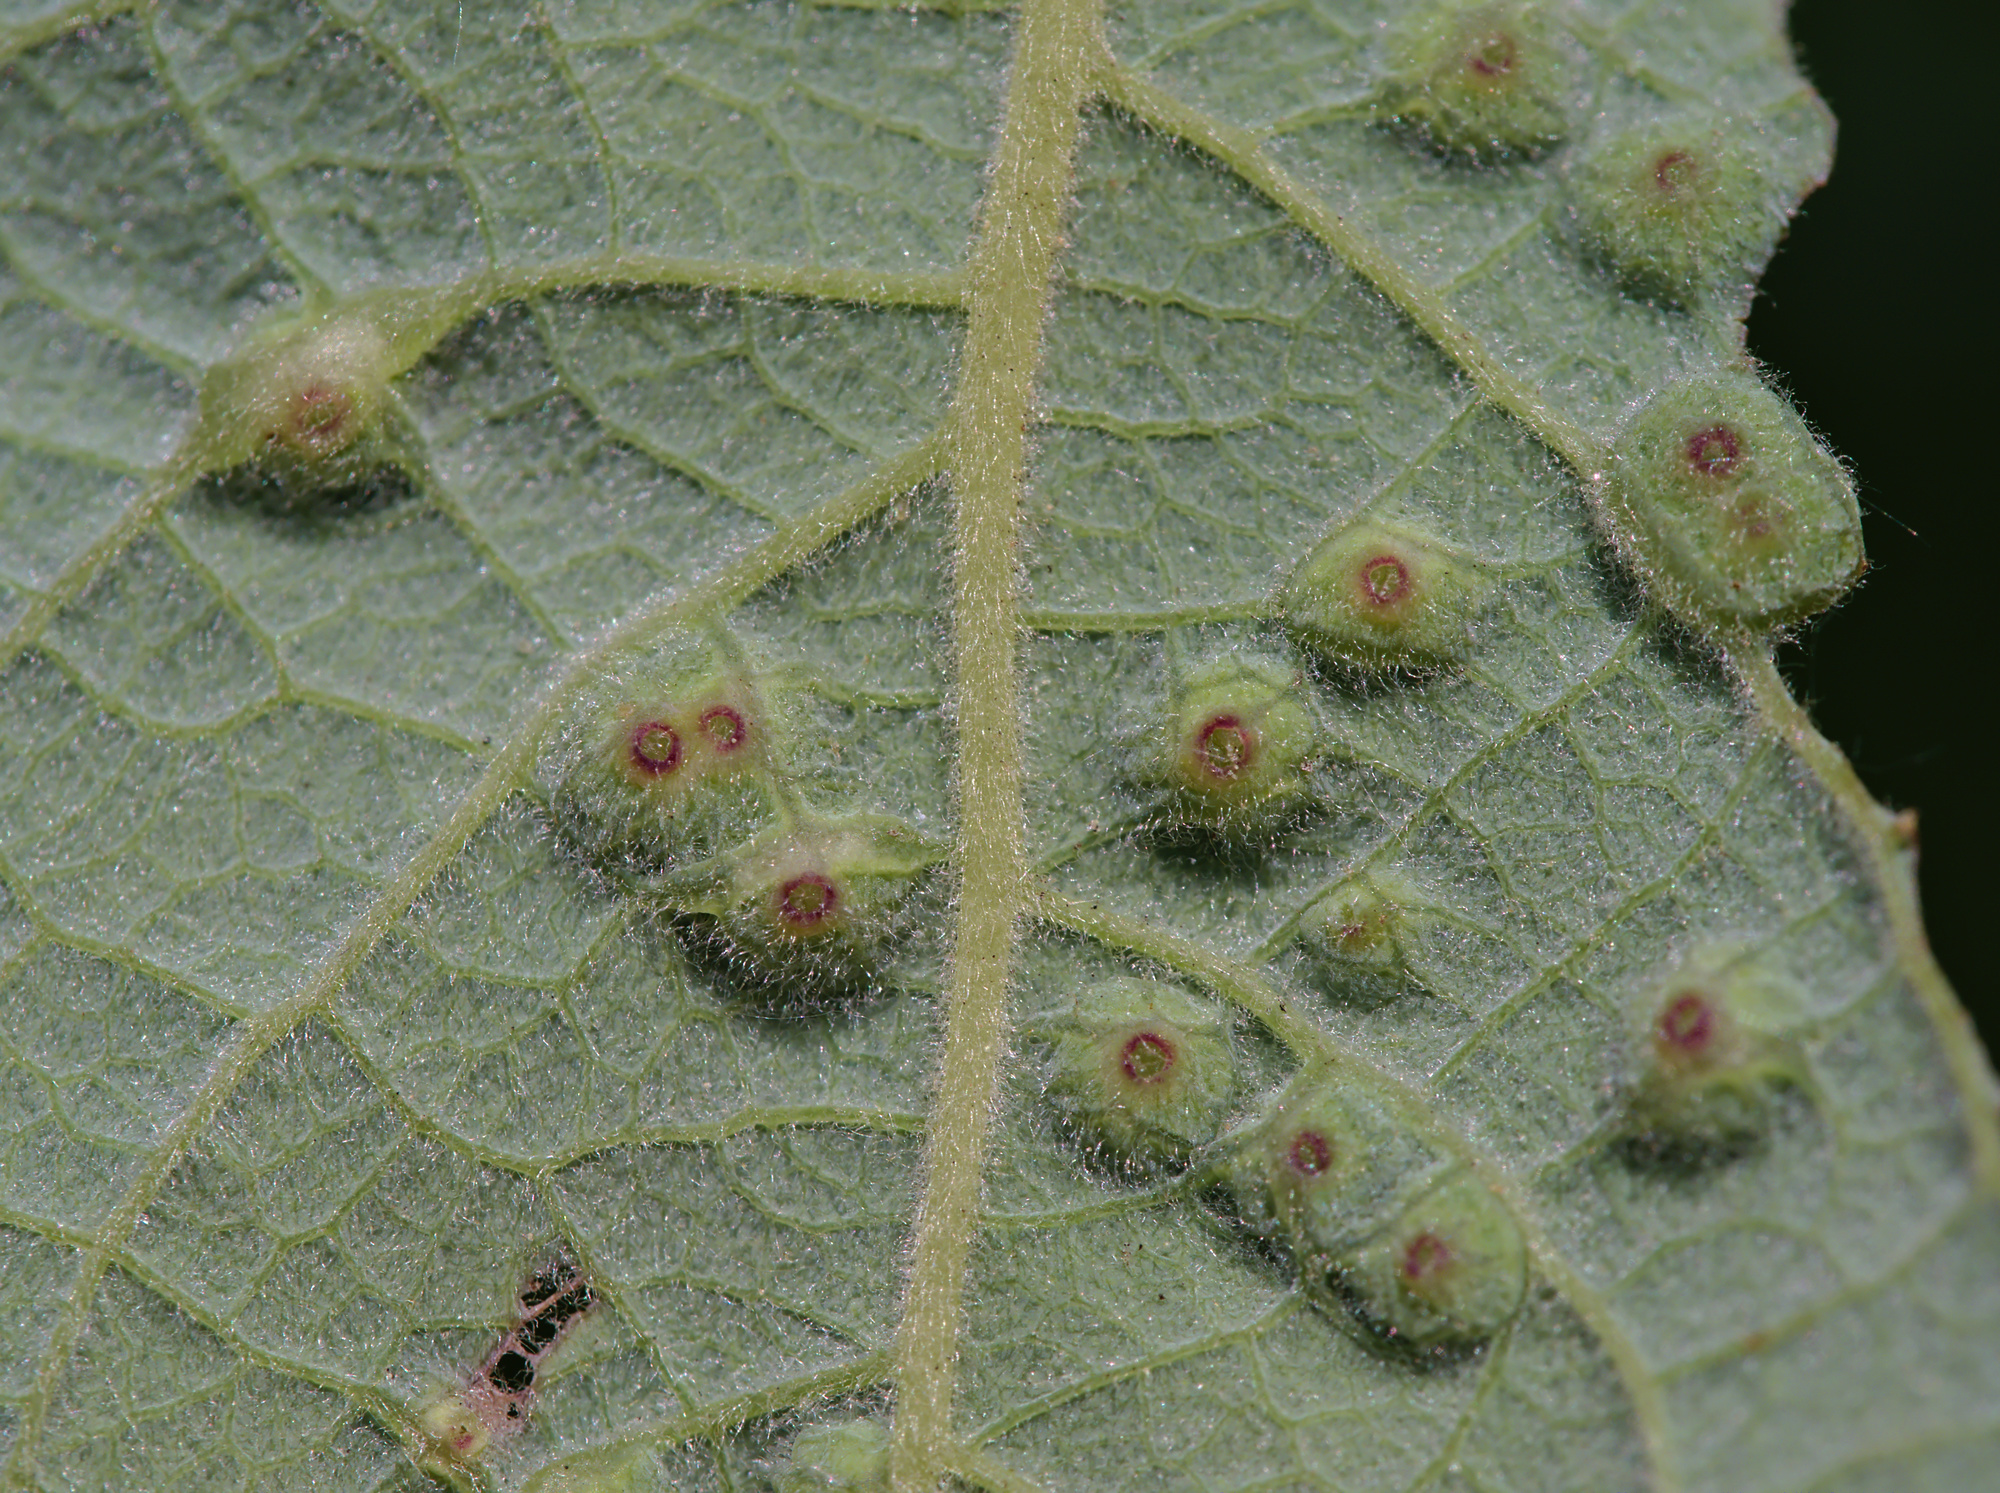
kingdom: Animalia
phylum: Arthropoda
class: Insecta
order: Diptera
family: Cecidomyiidae
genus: Iteomyia
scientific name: Iteomyia capreae
